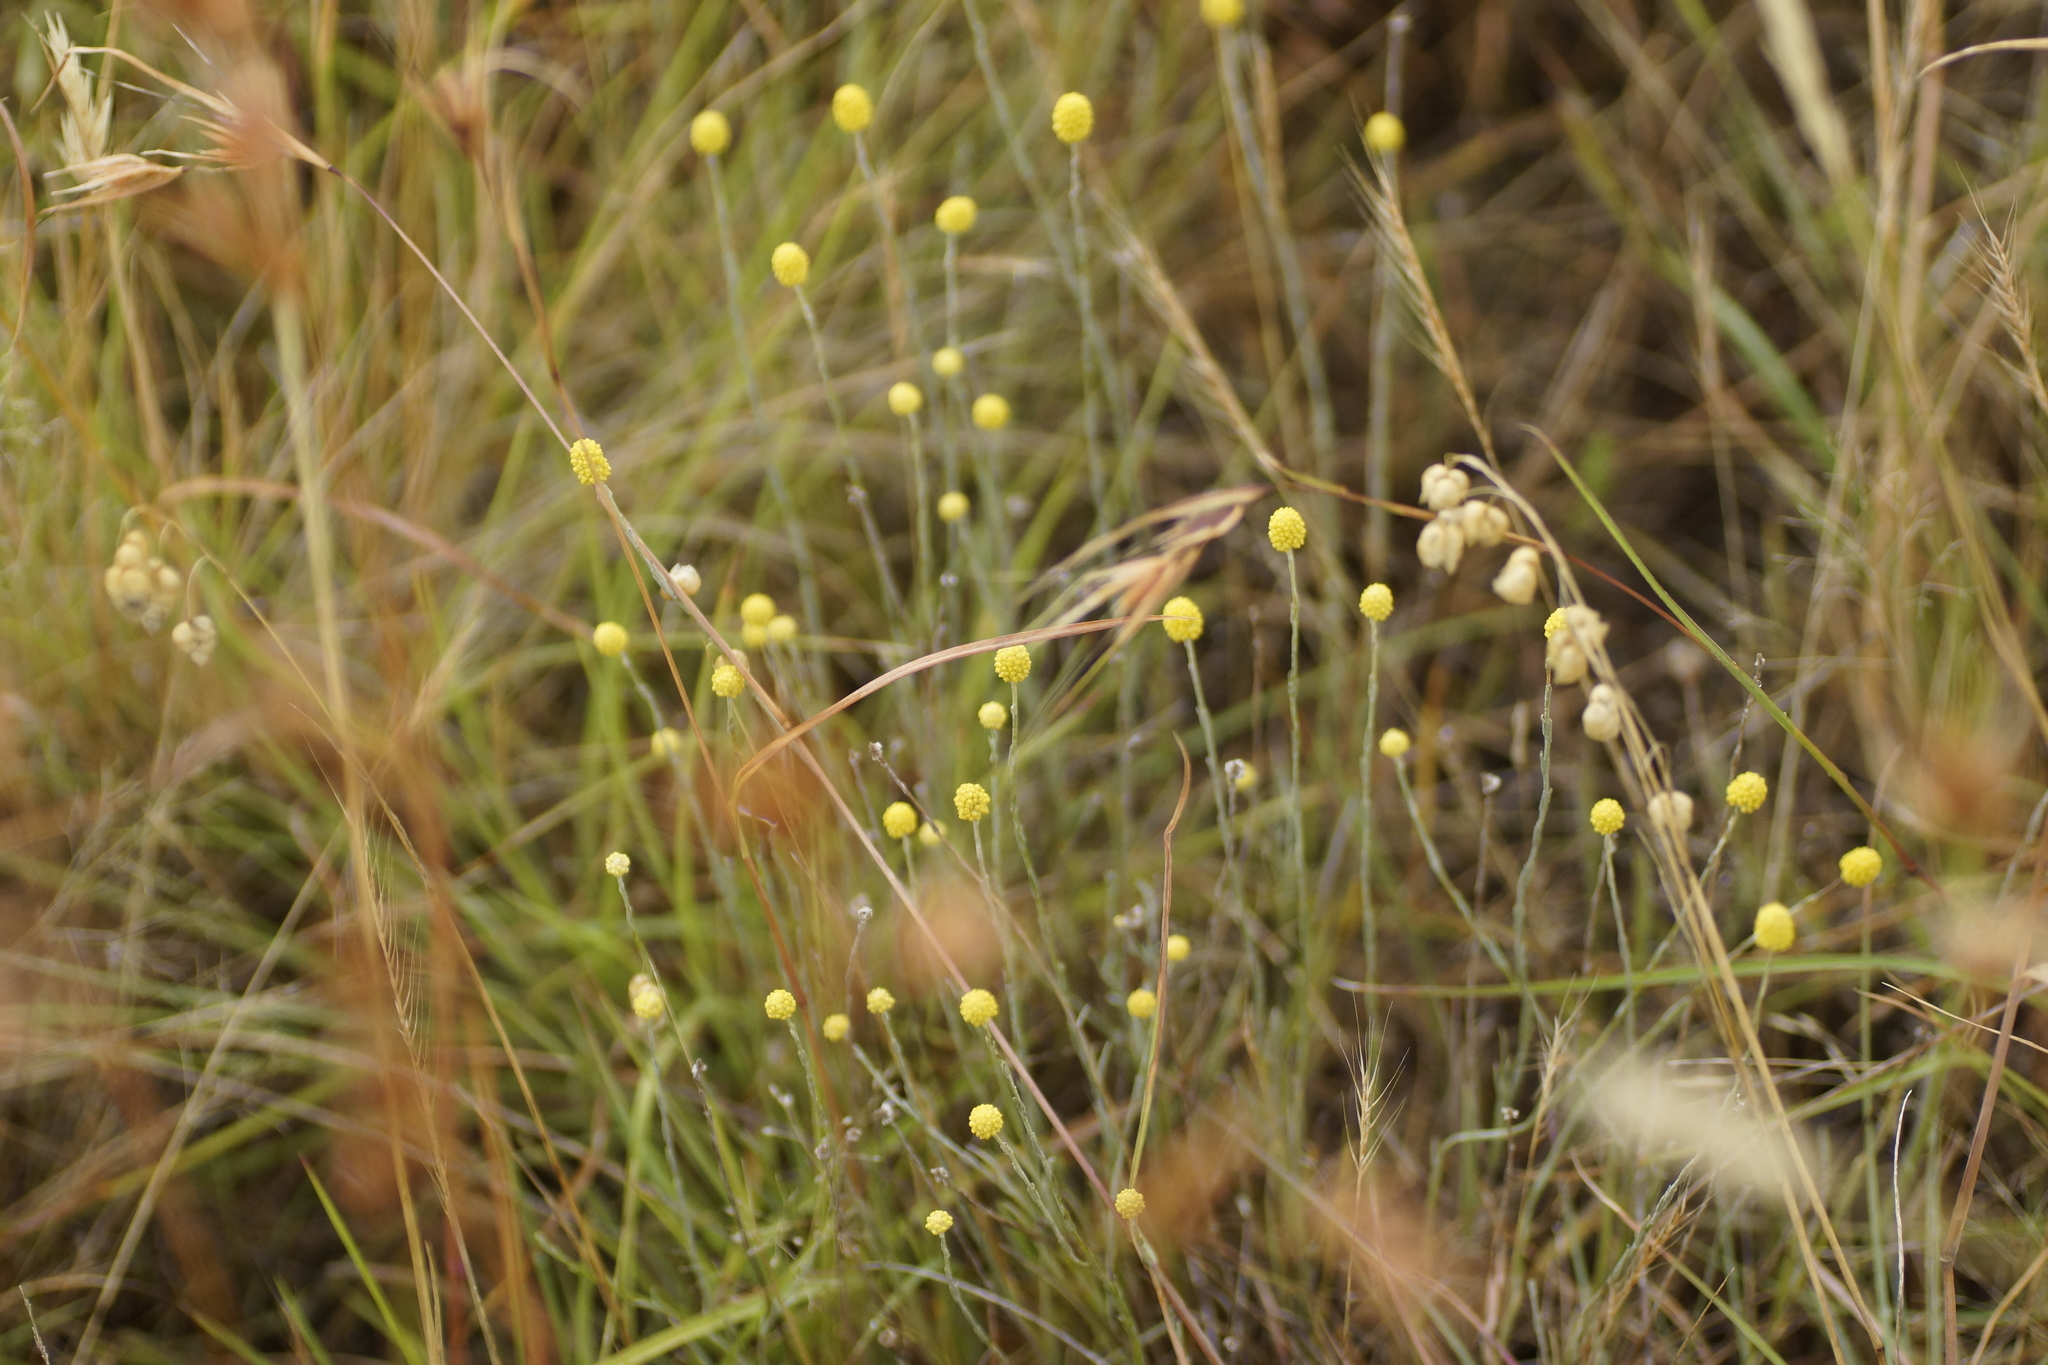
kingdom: Plantae
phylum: Tracheophyta
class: Magnoliopsida
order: Asterales
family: Asteraceae
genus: Calocephalus
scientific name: Calocephalus citreus
